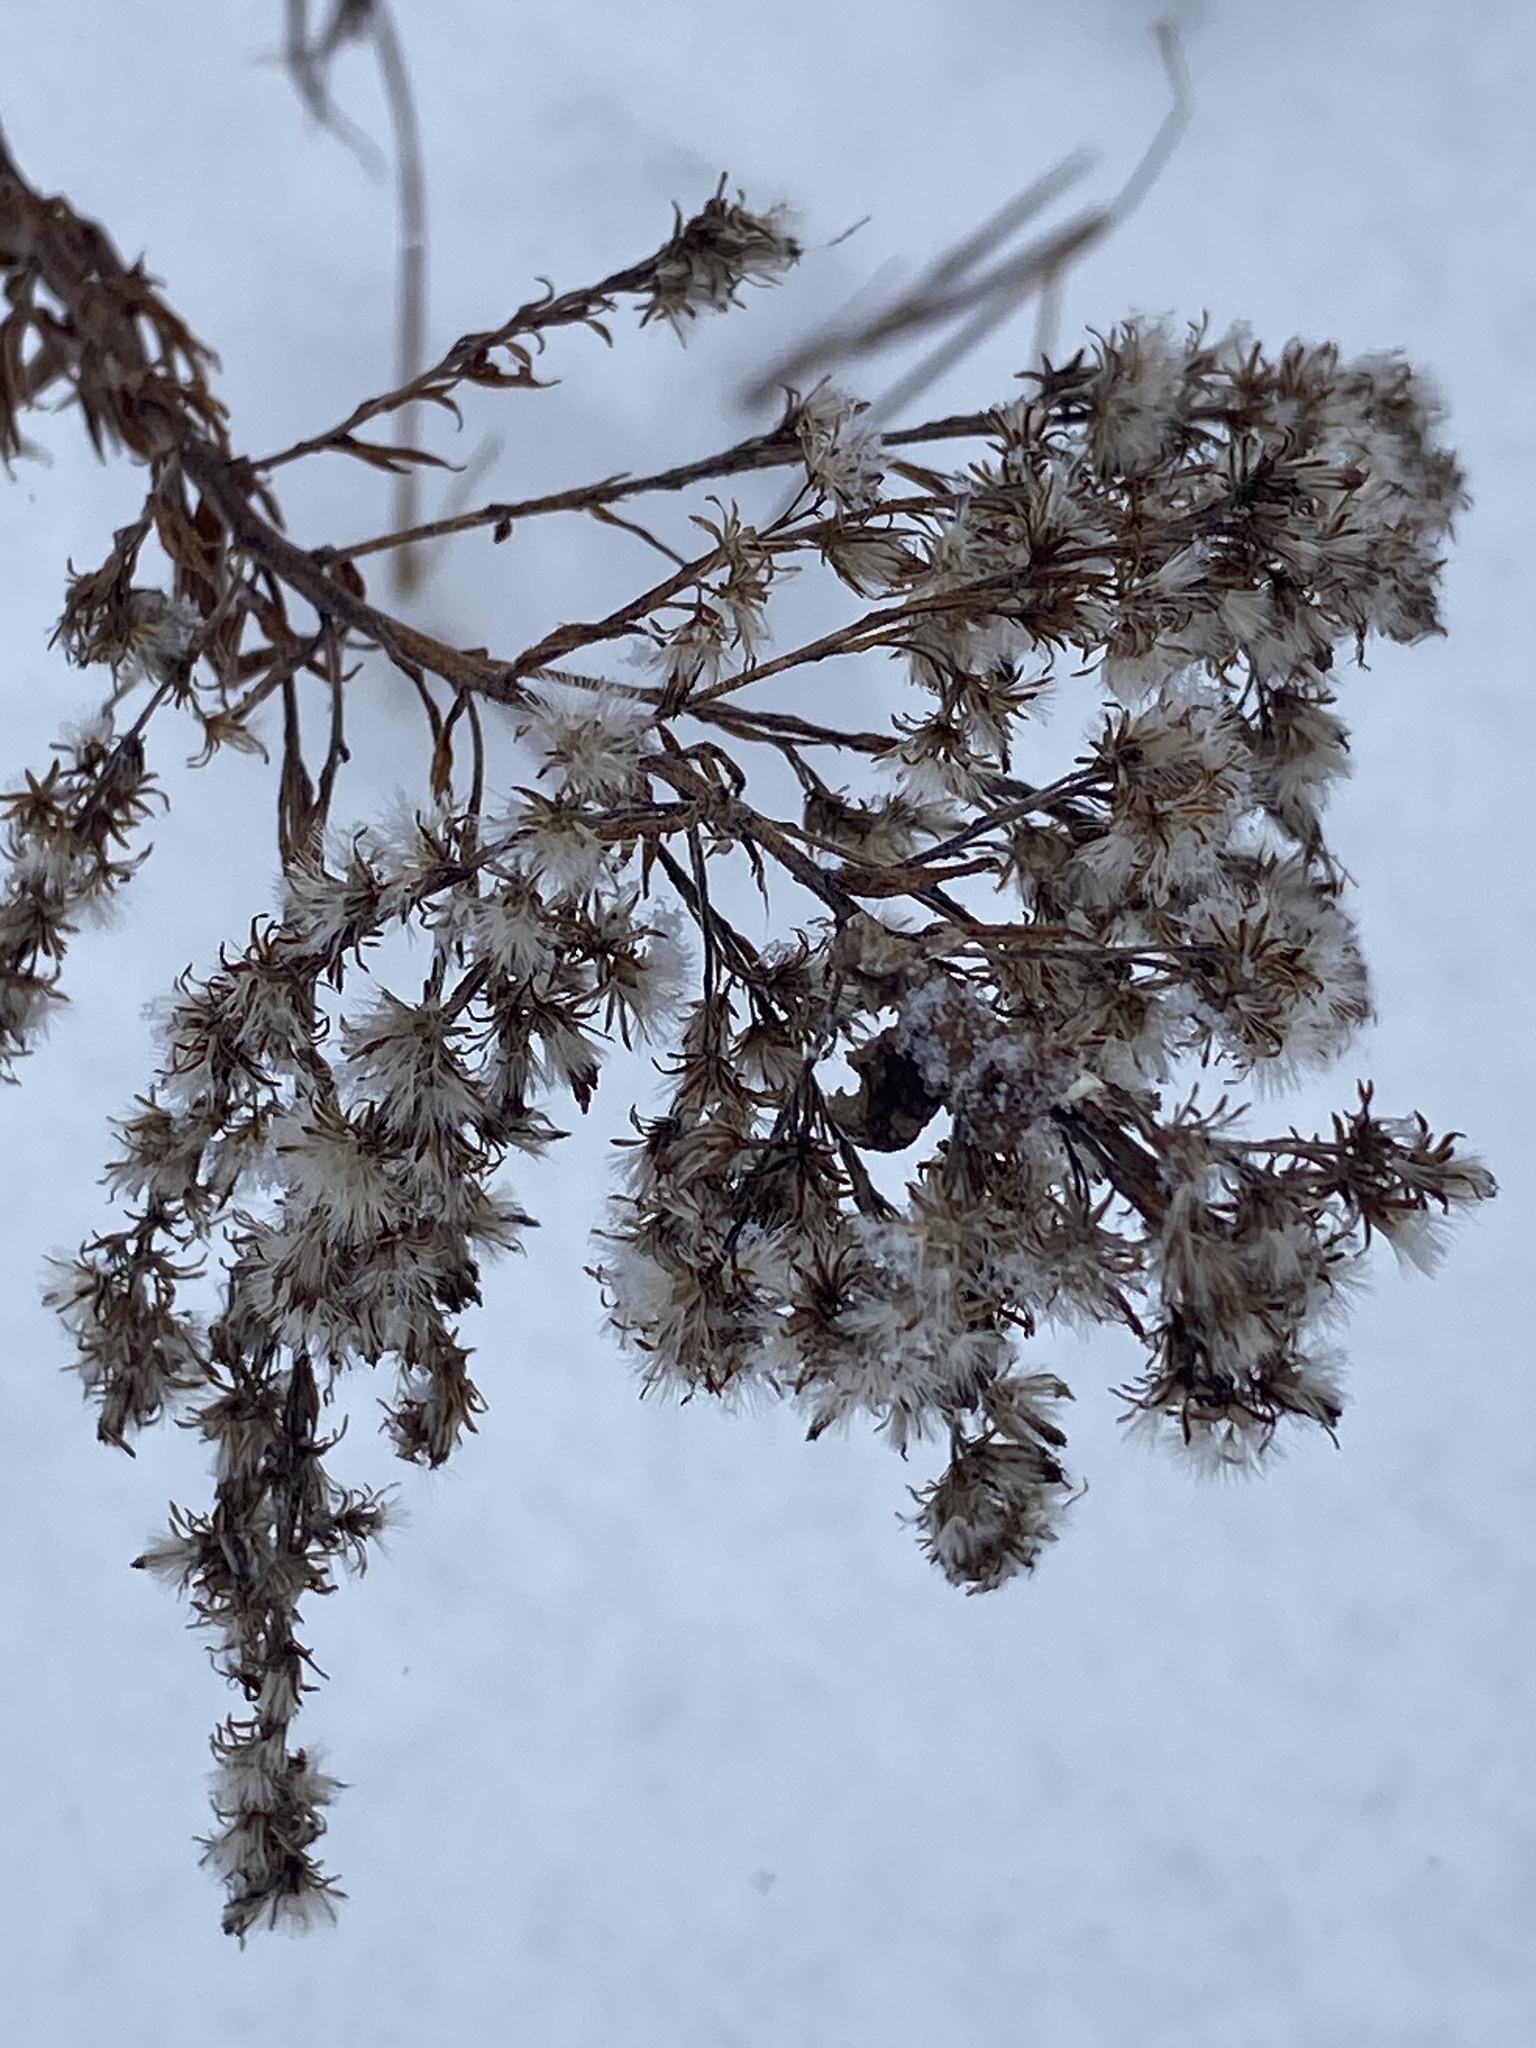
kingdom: Plantae
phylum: Tracheophyta
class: Magnoliopsida
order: Asterales
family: Asteraceae
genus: Solidago
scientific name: Solidago altissima
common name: Late goldenrod
